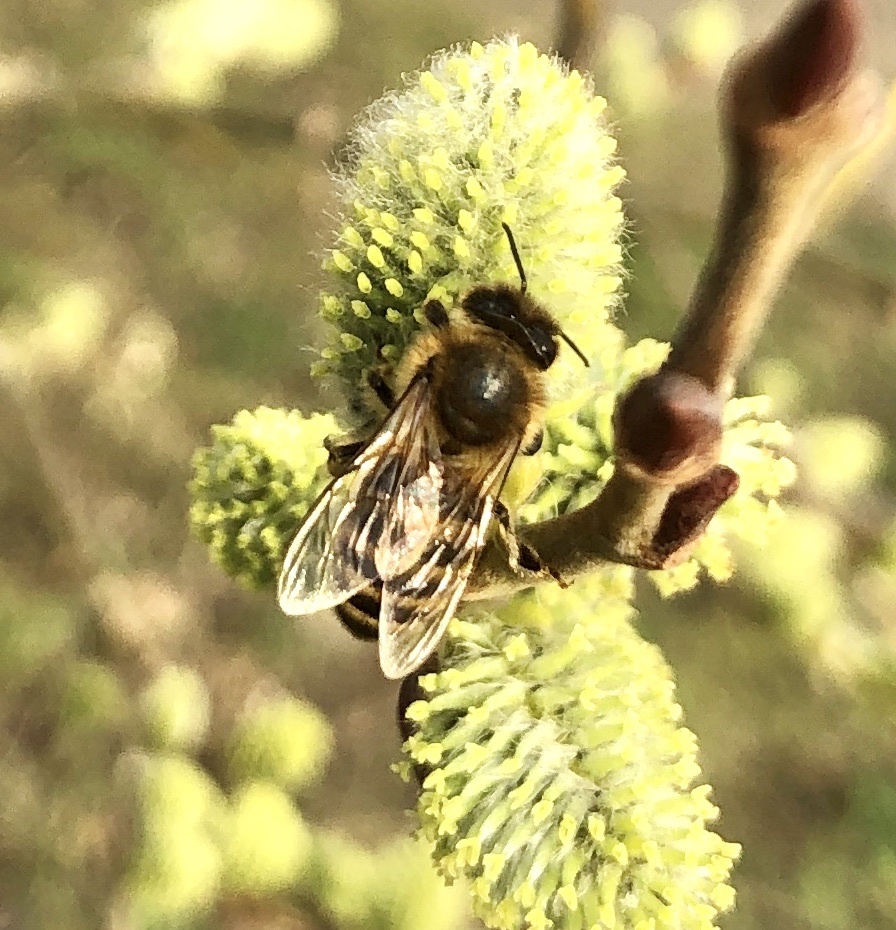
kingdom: Animalia
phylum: Arthropoda
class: Insecta
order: Hymenoptera
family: Apidae
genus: Apis
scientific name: Apis mellifera
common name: Honey bee
